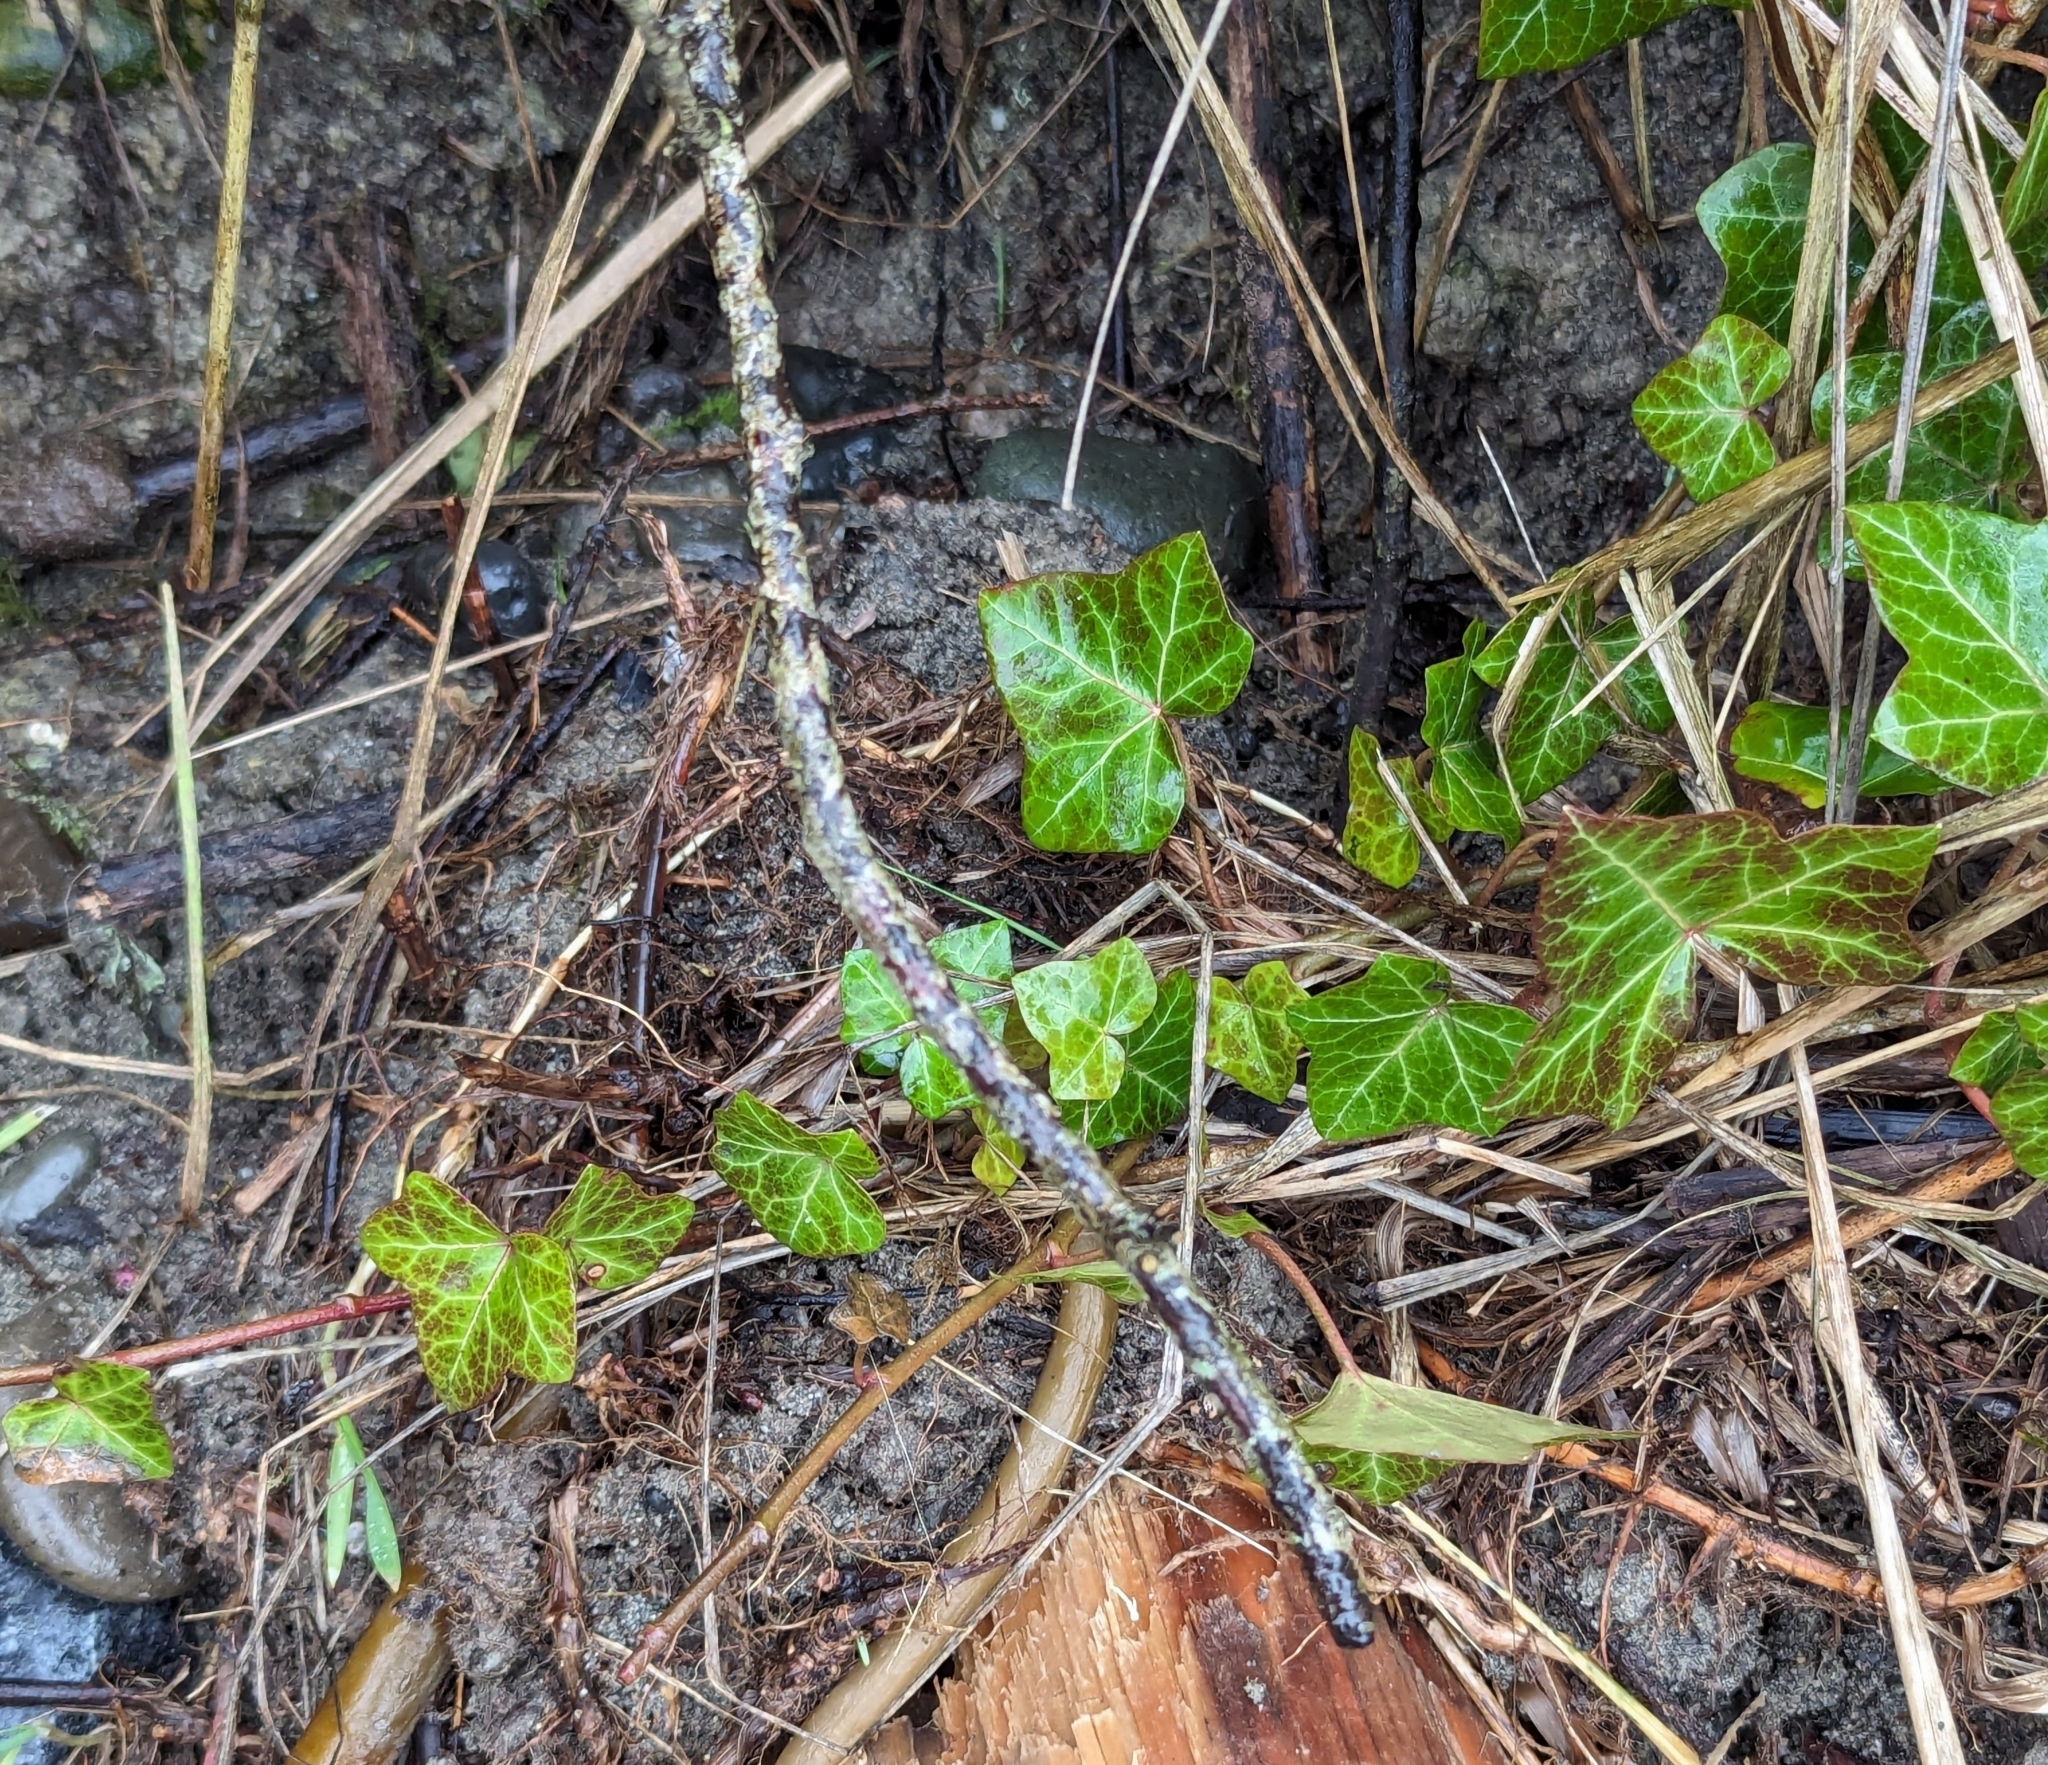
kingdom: Plantae
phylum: Tracheophyta
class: Magnoliopsida
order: Apiales
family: Araliaceae
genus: Hedera
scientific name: Hedera hibernica
